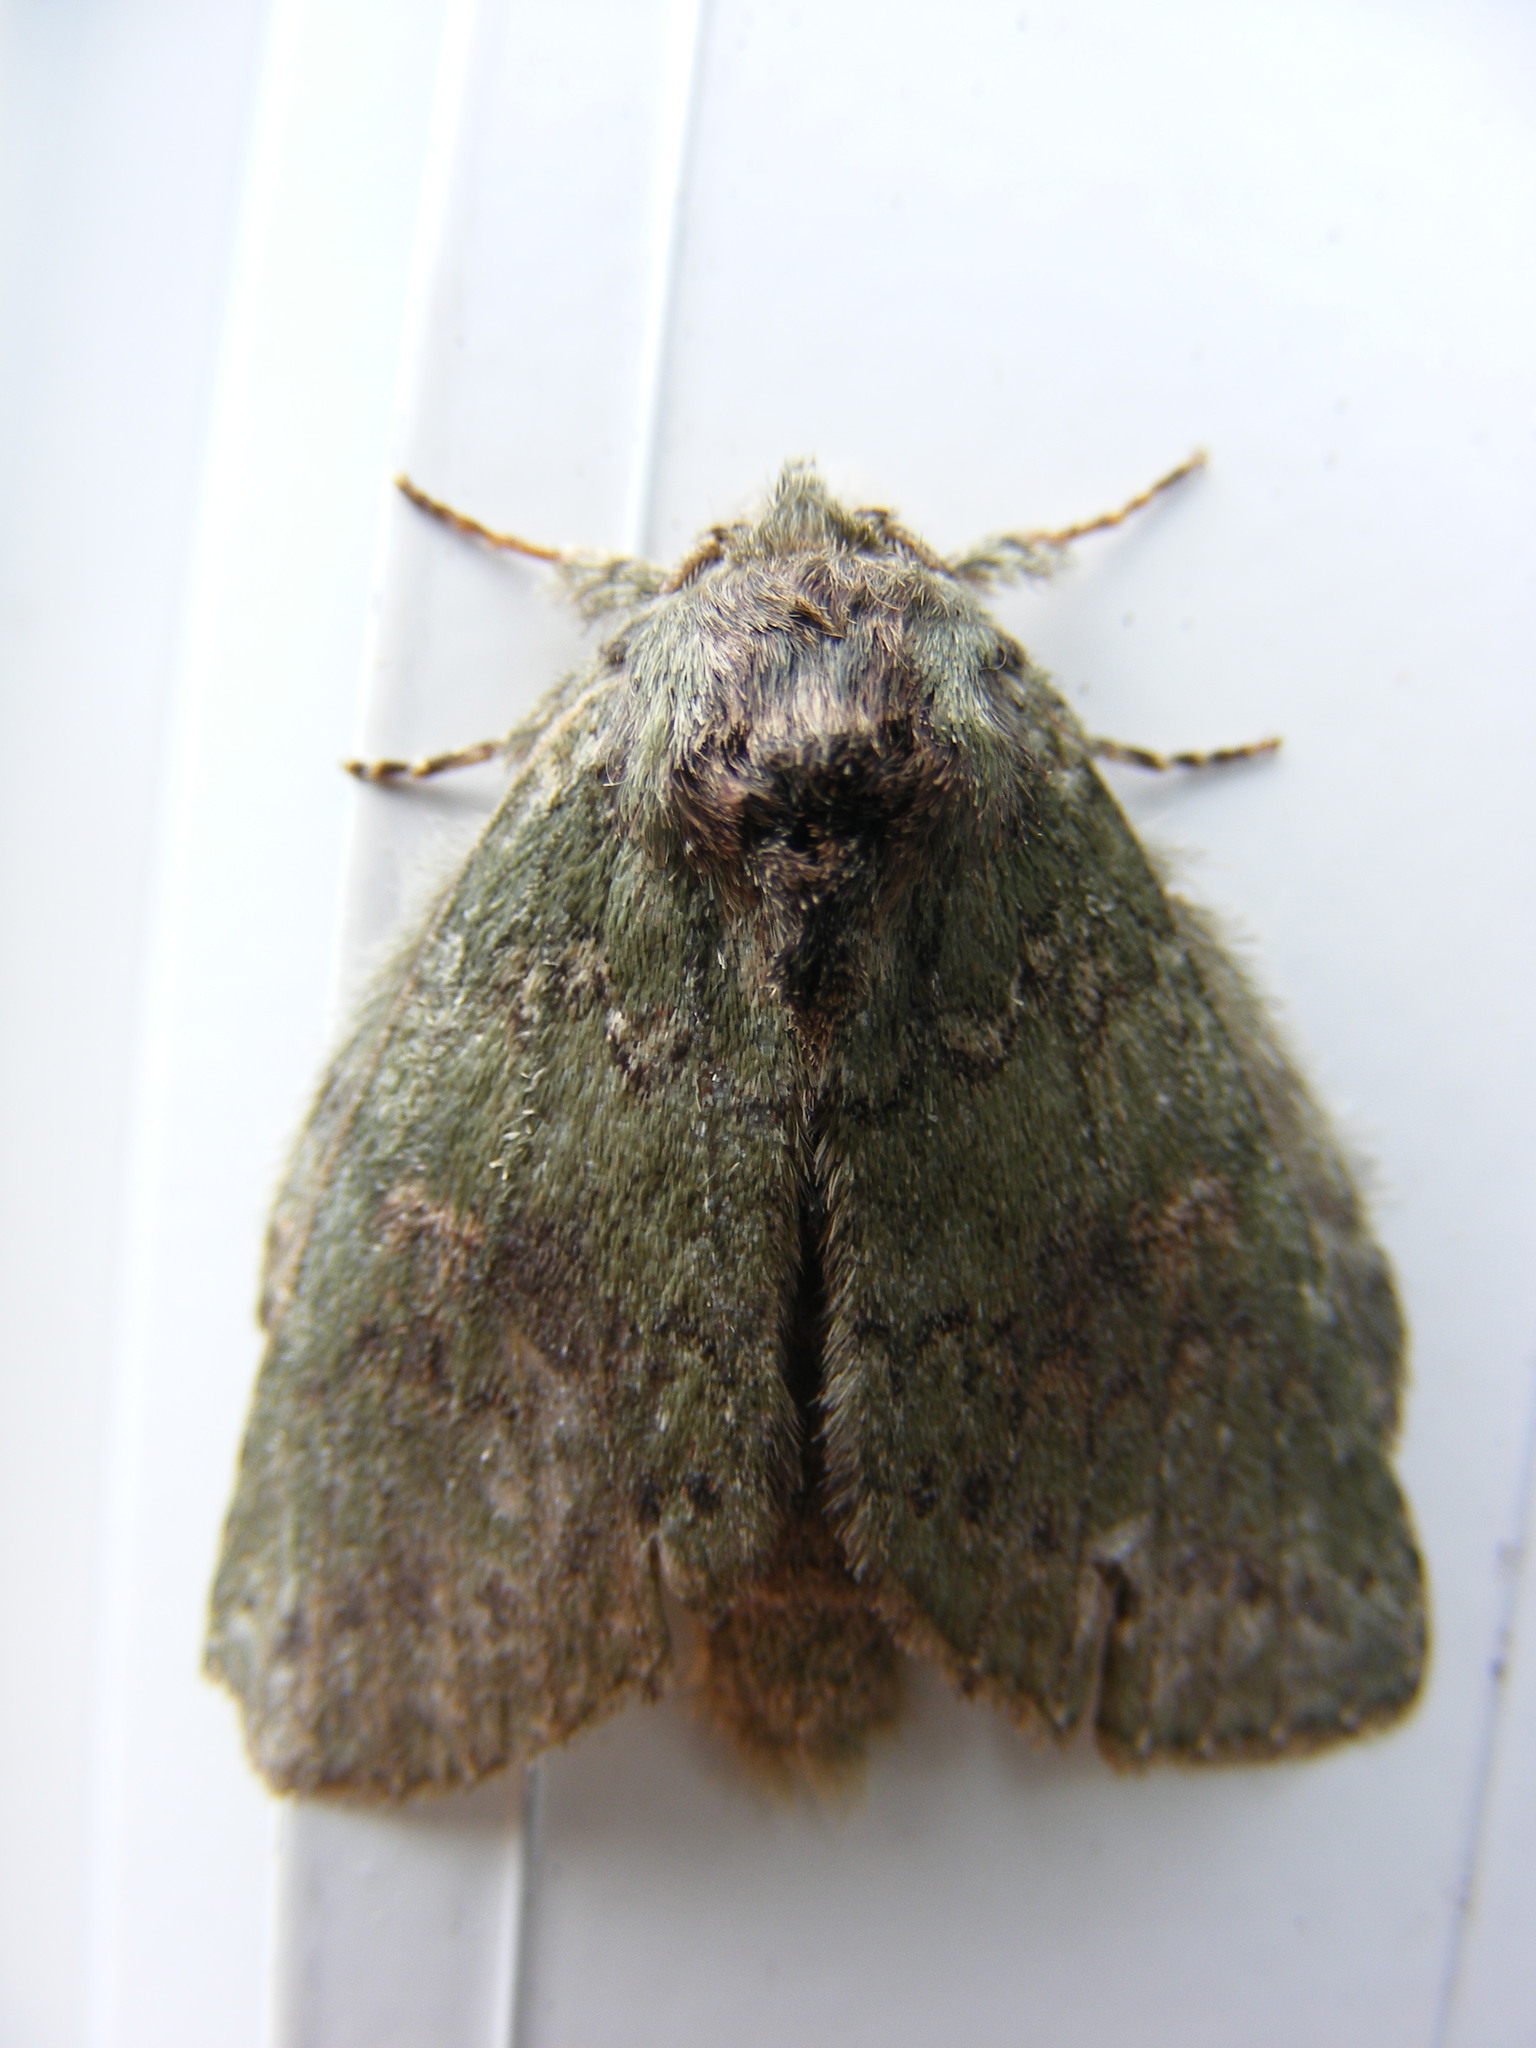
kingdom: Animalia
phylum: Arthropoda
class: Insecta
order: Lepidoptera
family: Notodontidae
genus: Disphragis
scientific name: Disphragis Cecrita biundata
